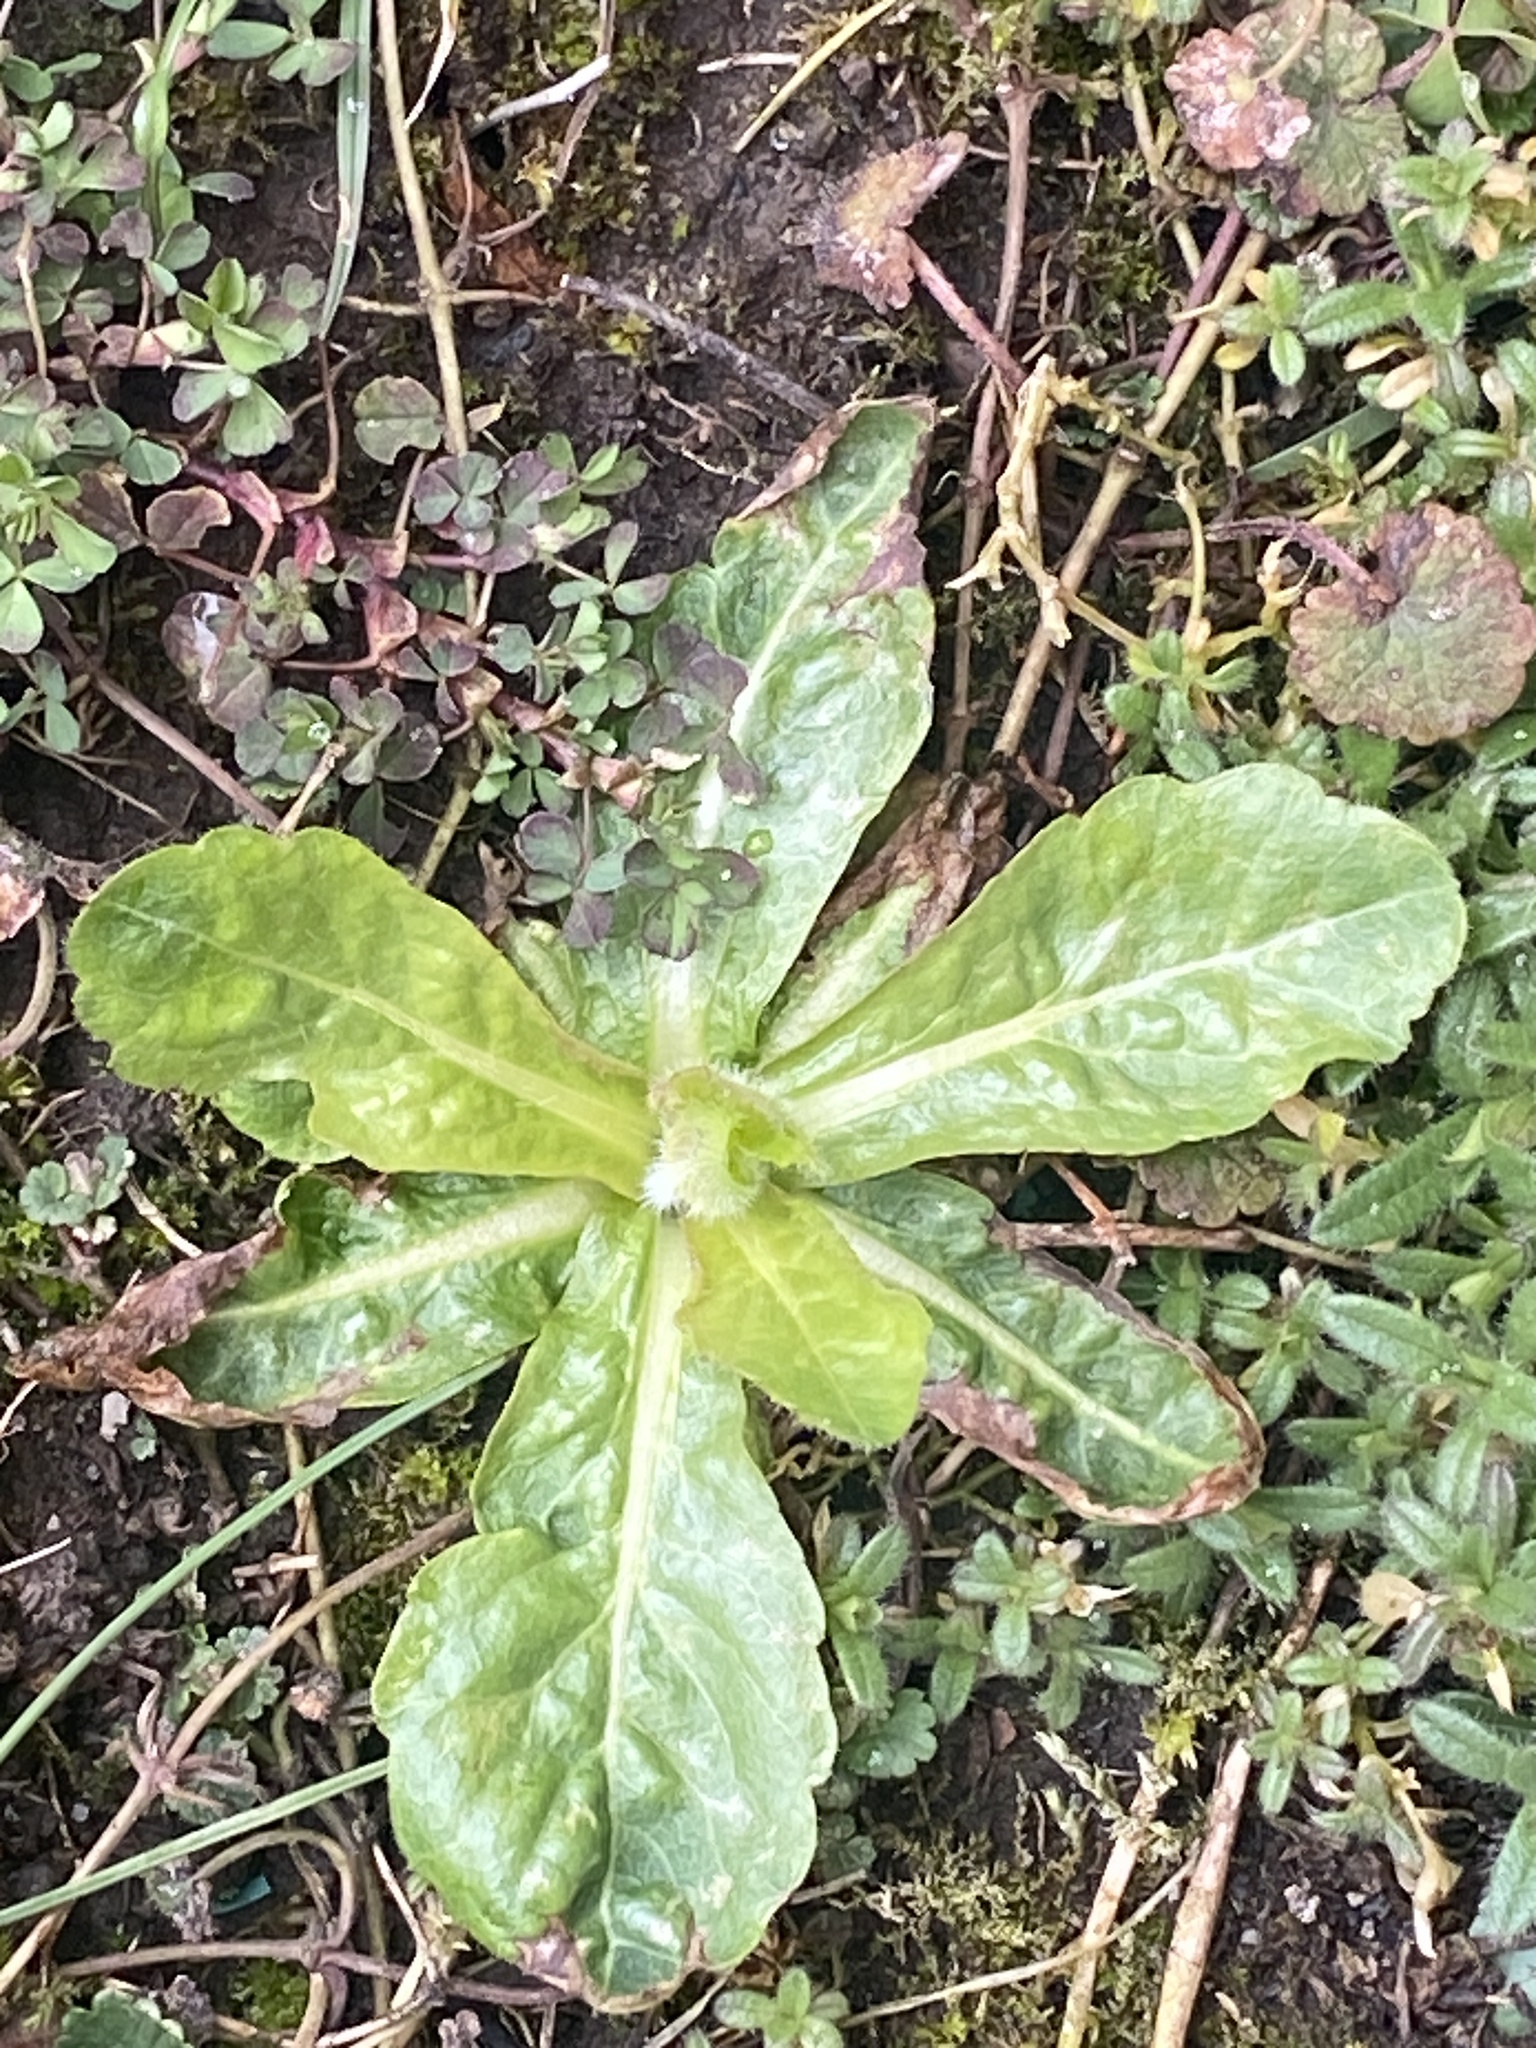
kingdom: Plantae
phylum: Tracheophyta
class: Magnoliopsida
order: Asterales
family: Asteraceae
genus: Erigeron
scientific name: Erigeron philadelphicus
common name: Robin's-plantain
